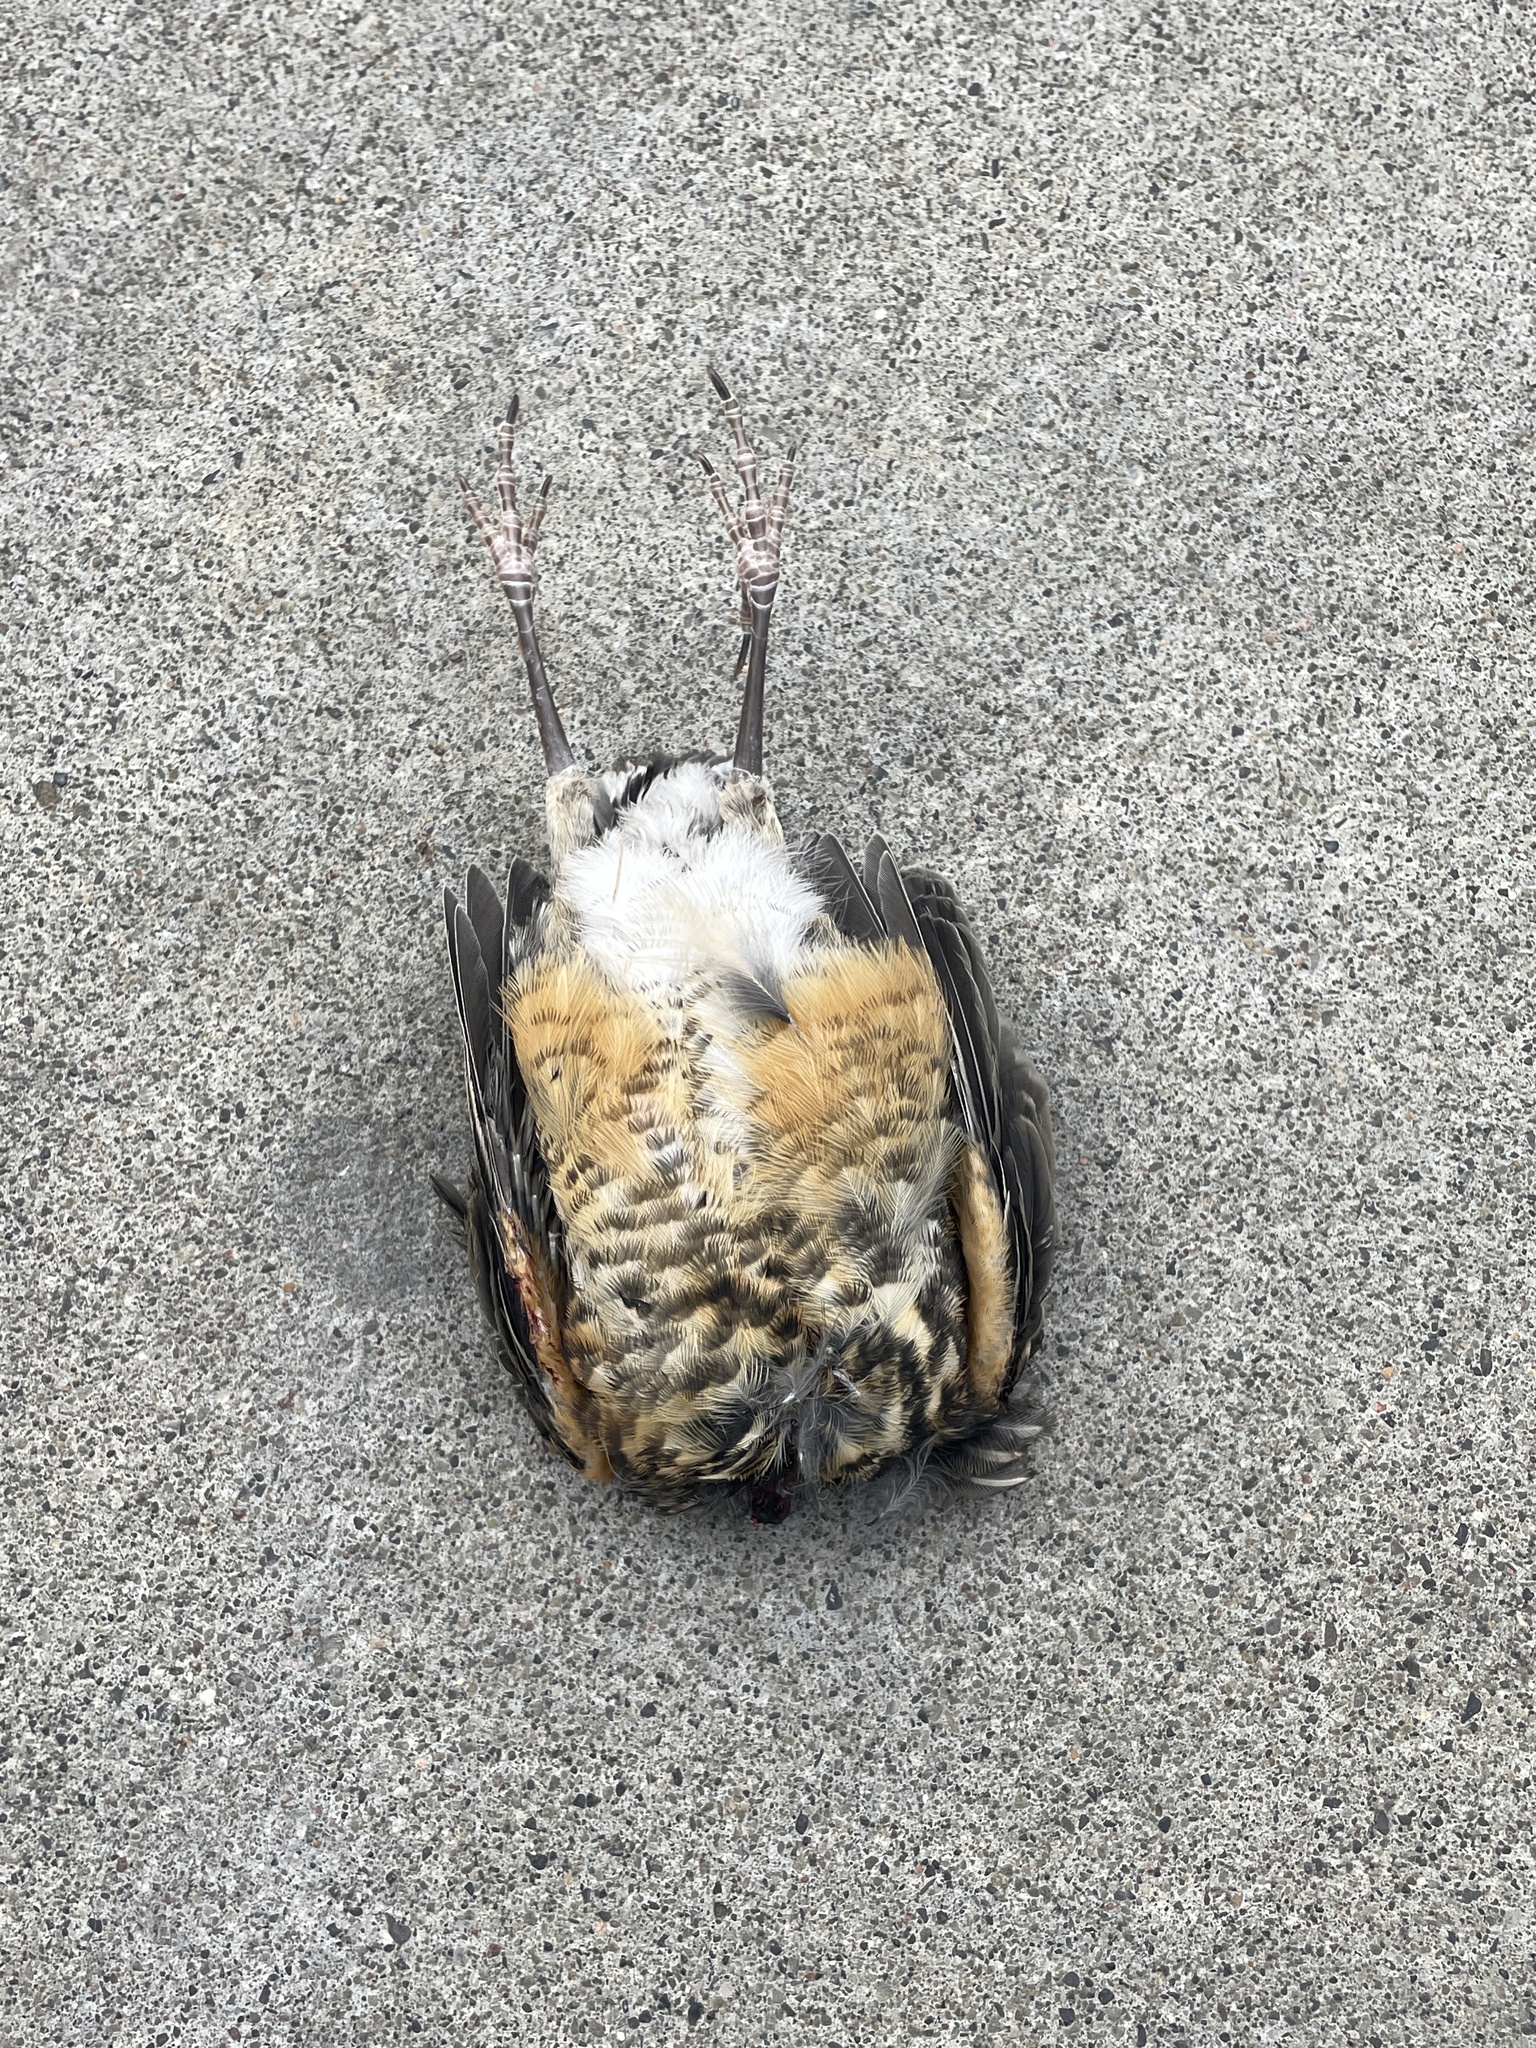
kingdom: Animalia
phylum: Chordata
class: Aves
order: Passeriformes
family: Turdidae
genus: Turdus
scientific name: Turdus migratorius
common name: American robin
